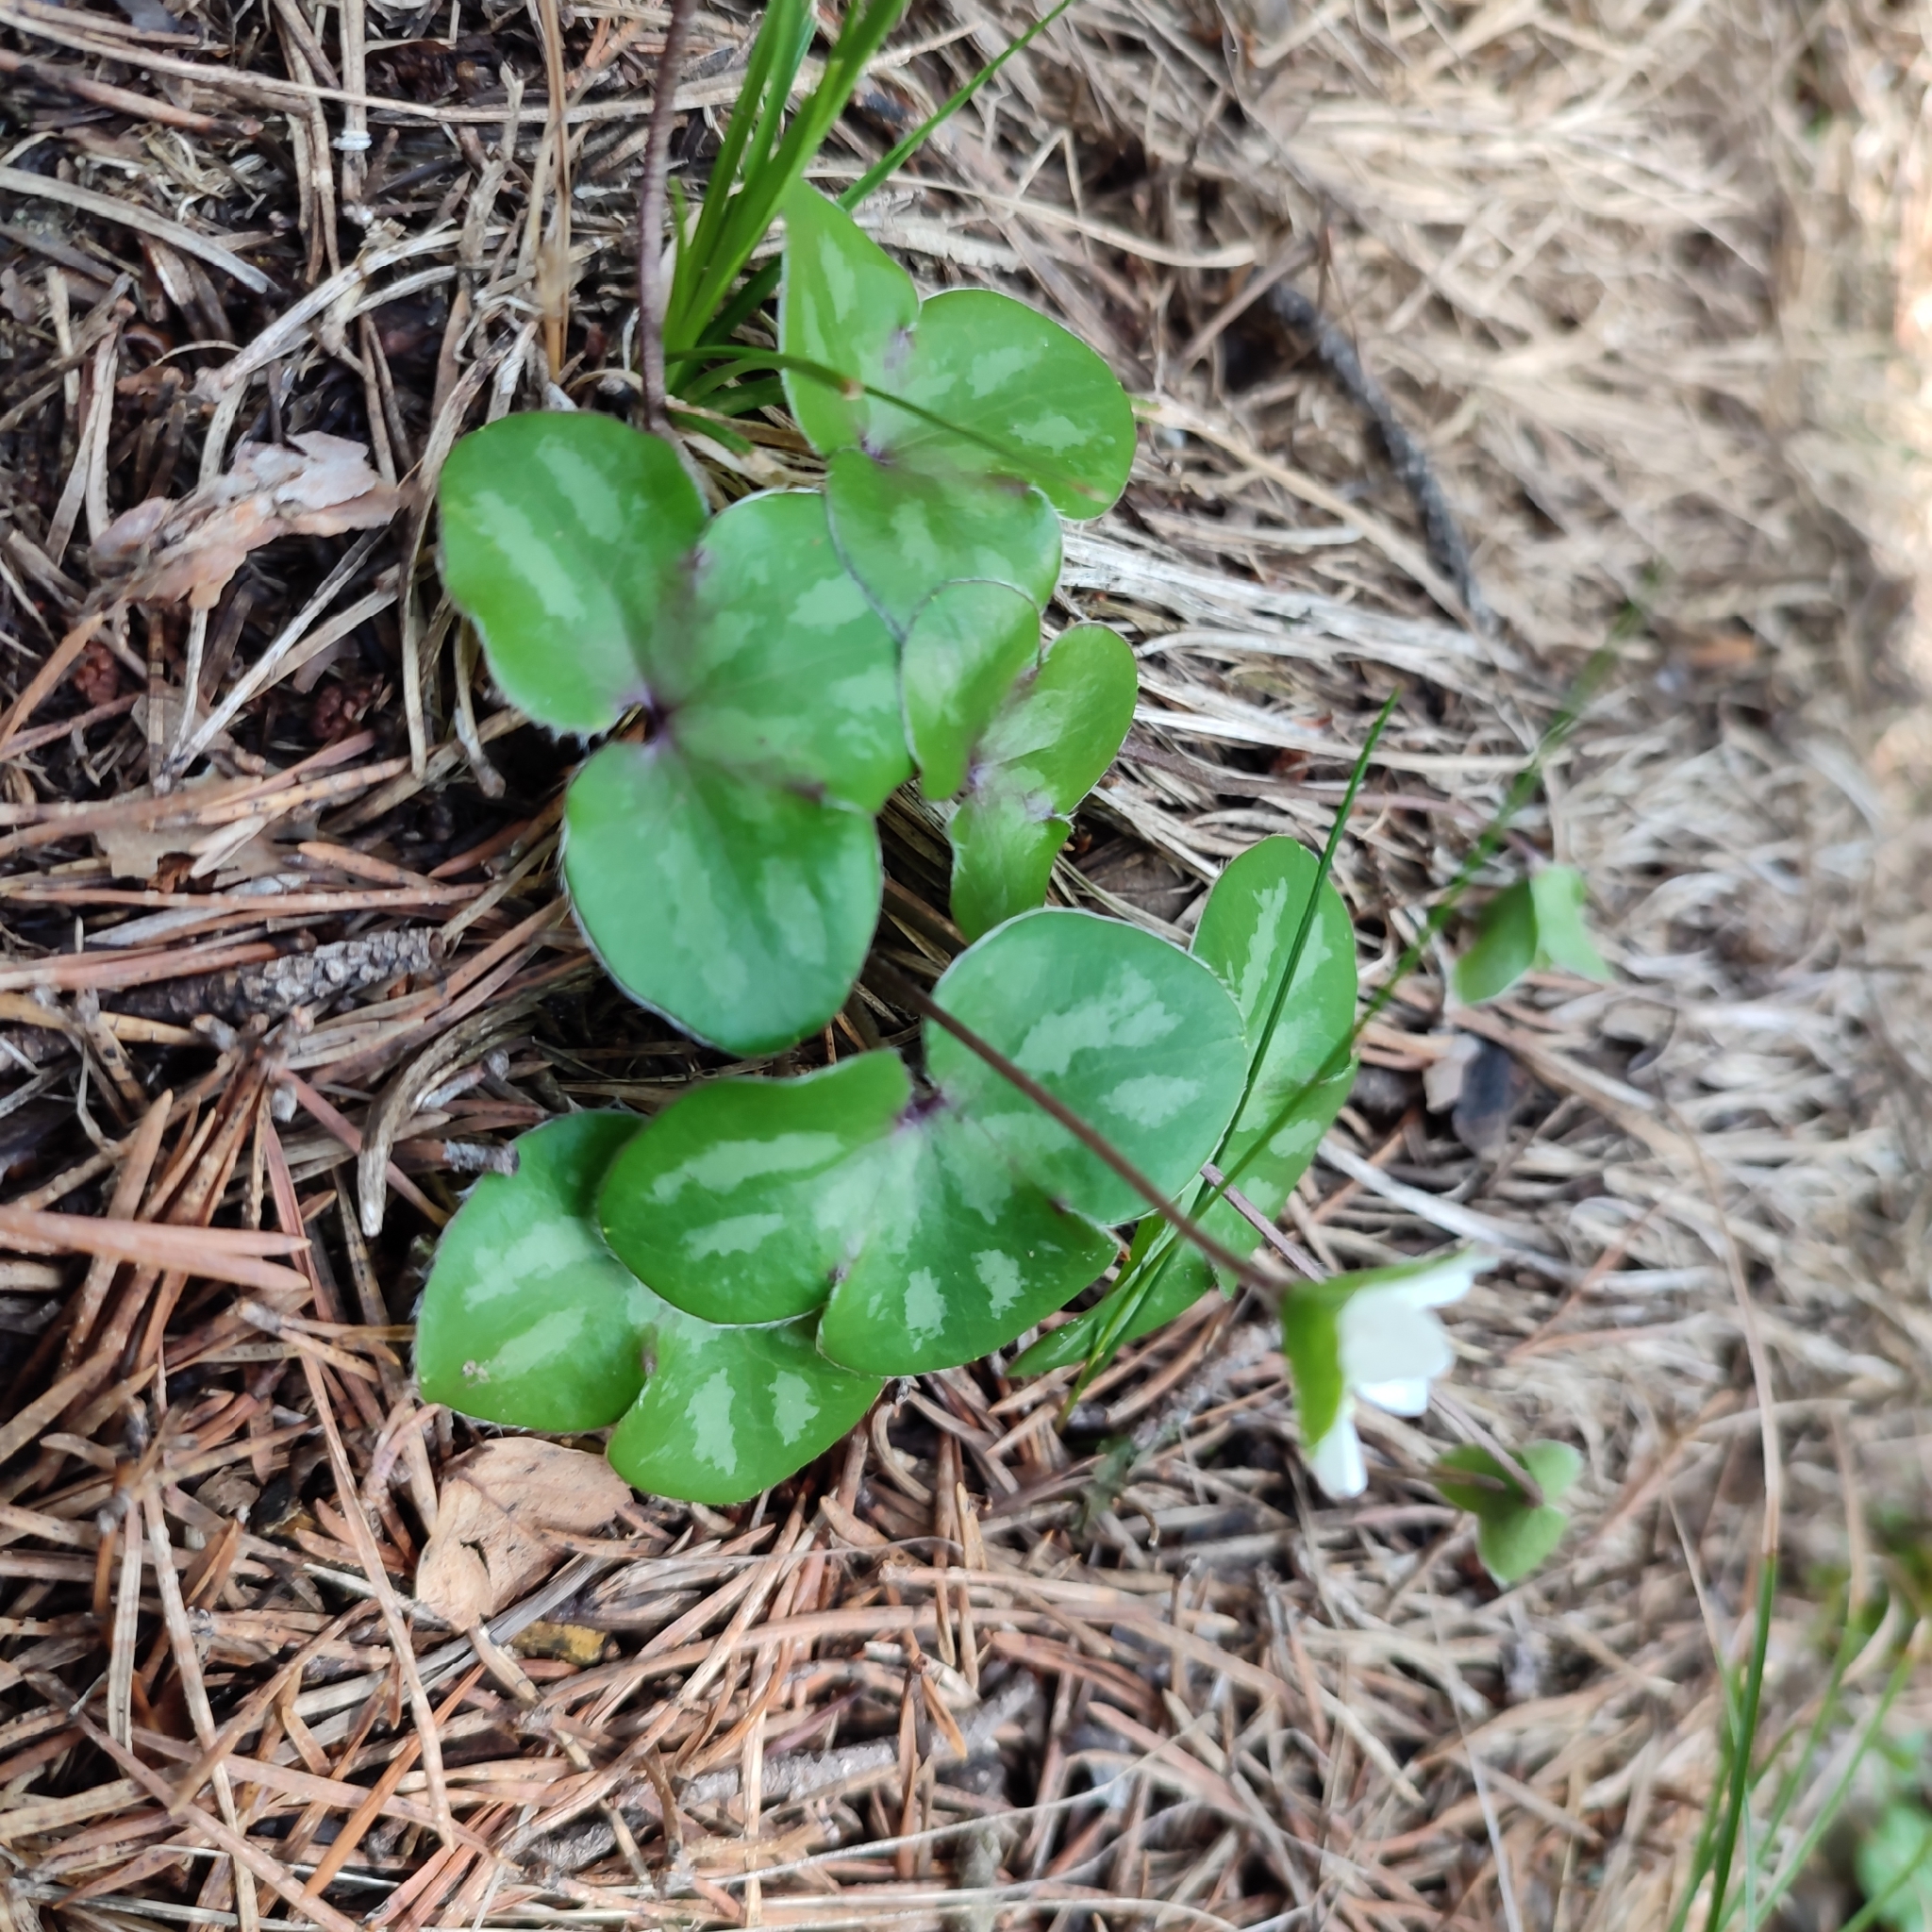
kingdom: Plantae
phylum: Tracheophyta
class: Magnoliopsida
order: Ranunculales
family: Ranunculaceae
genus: Hepatica
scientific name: Hepatica nobilis
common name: Liverleaf
